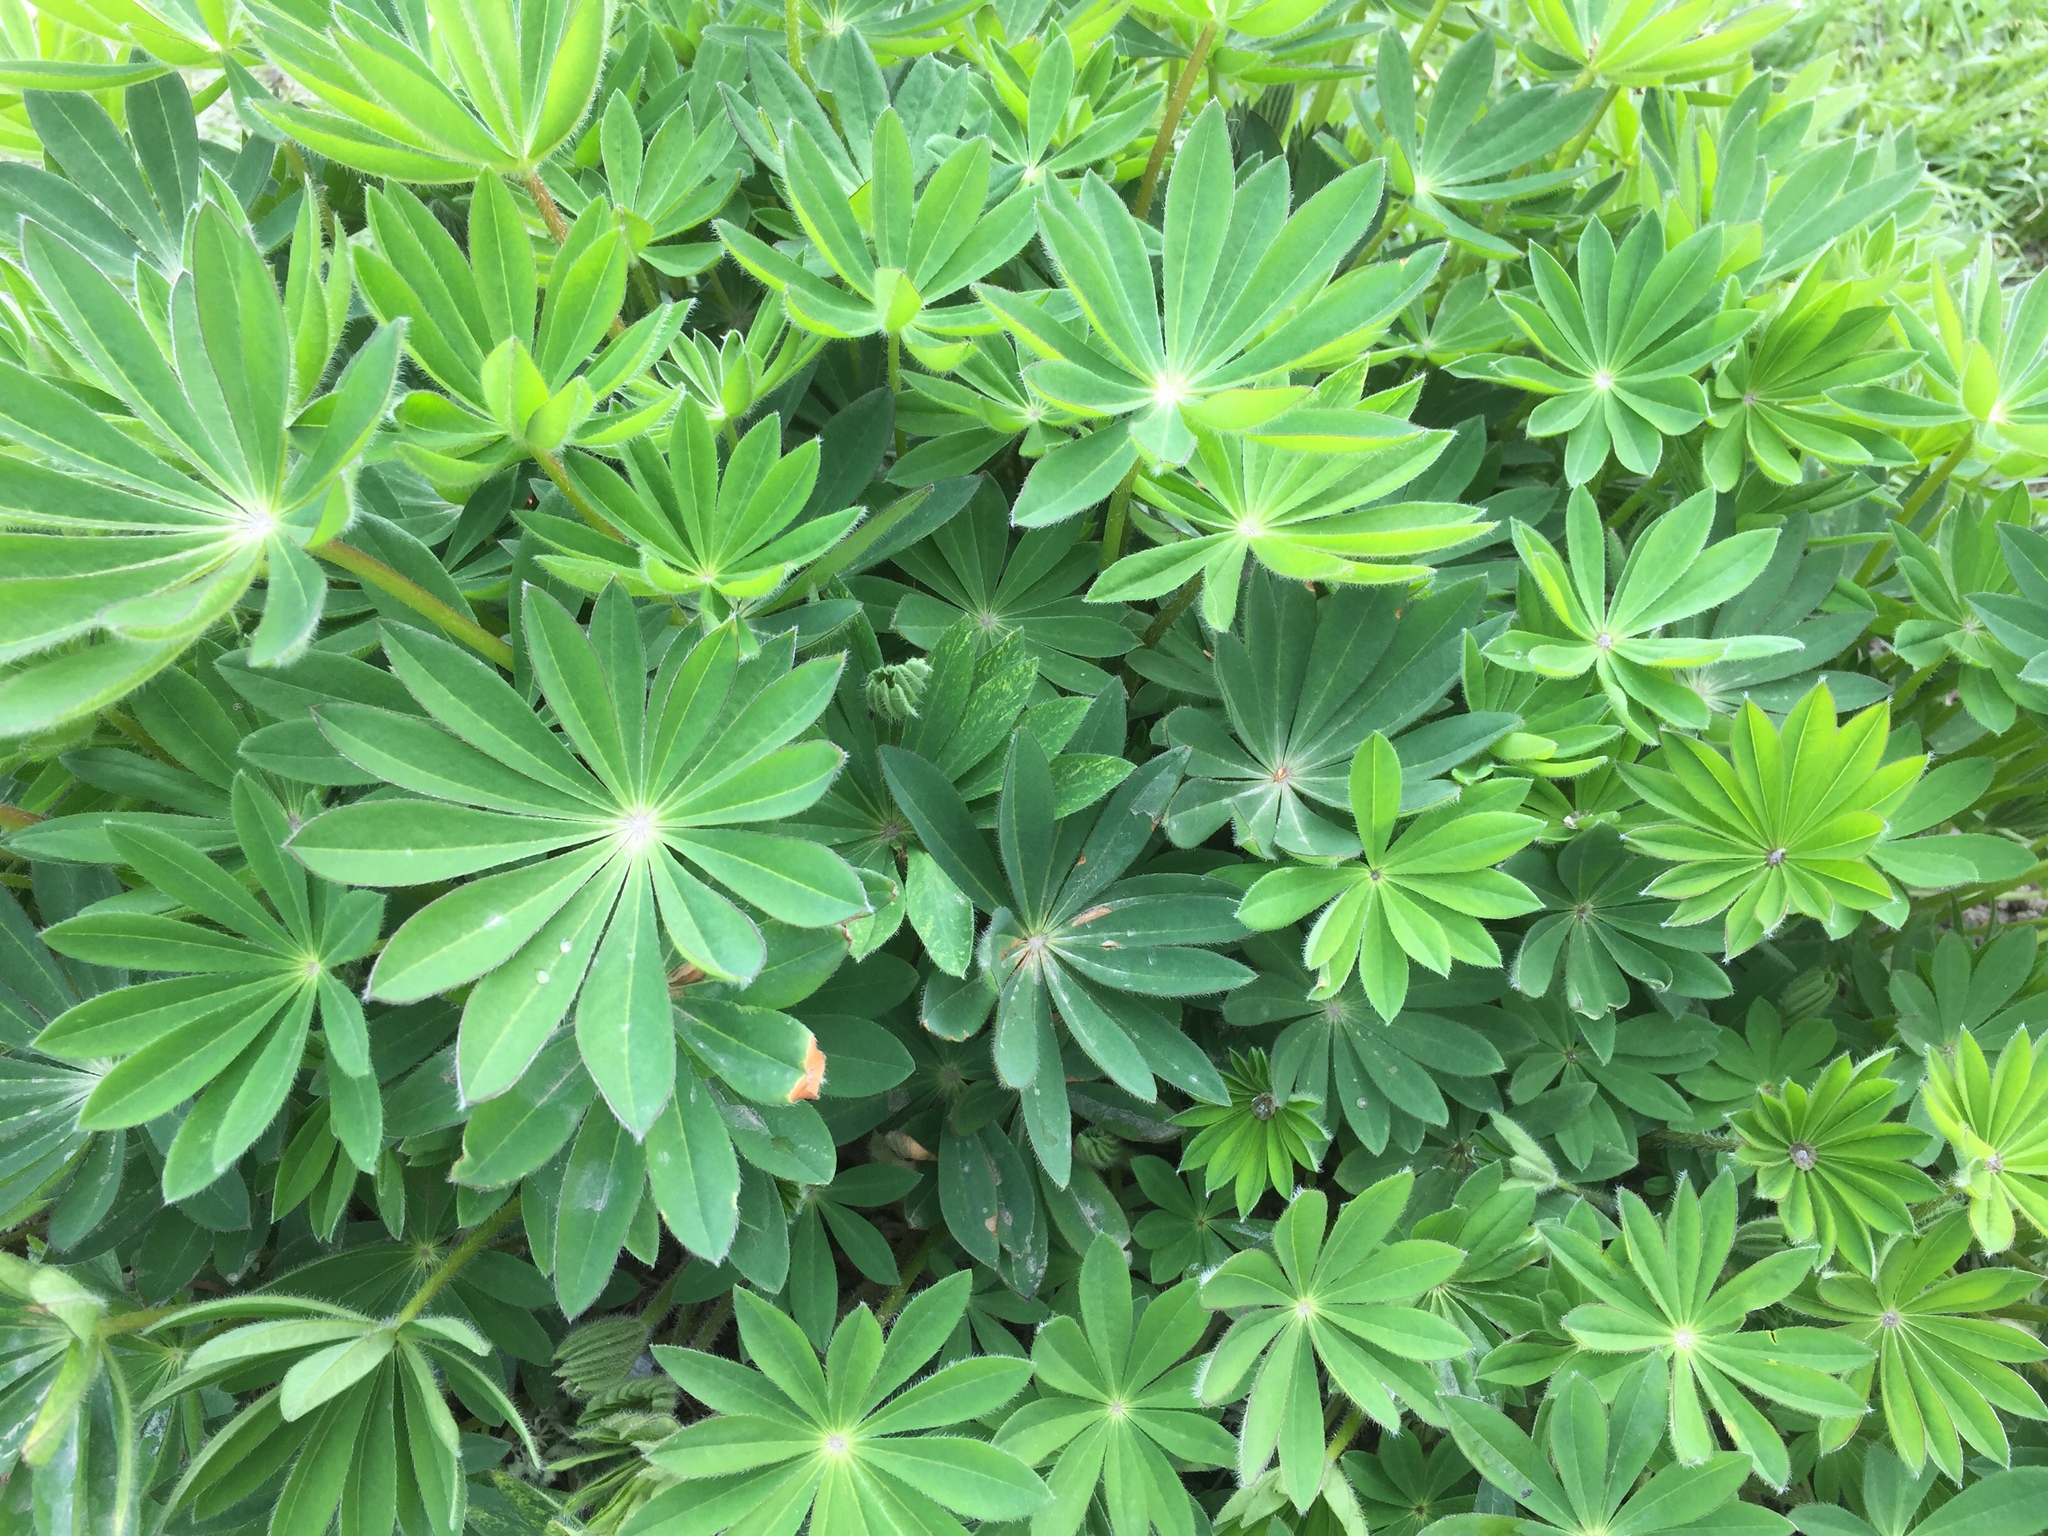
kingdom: Plantae
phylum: Tracheophyta
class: Magnoliopsida
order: Fabales
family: Fabaceae
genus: Lupinus
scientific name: Lupinus polyphyllus
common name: Garden lupin
